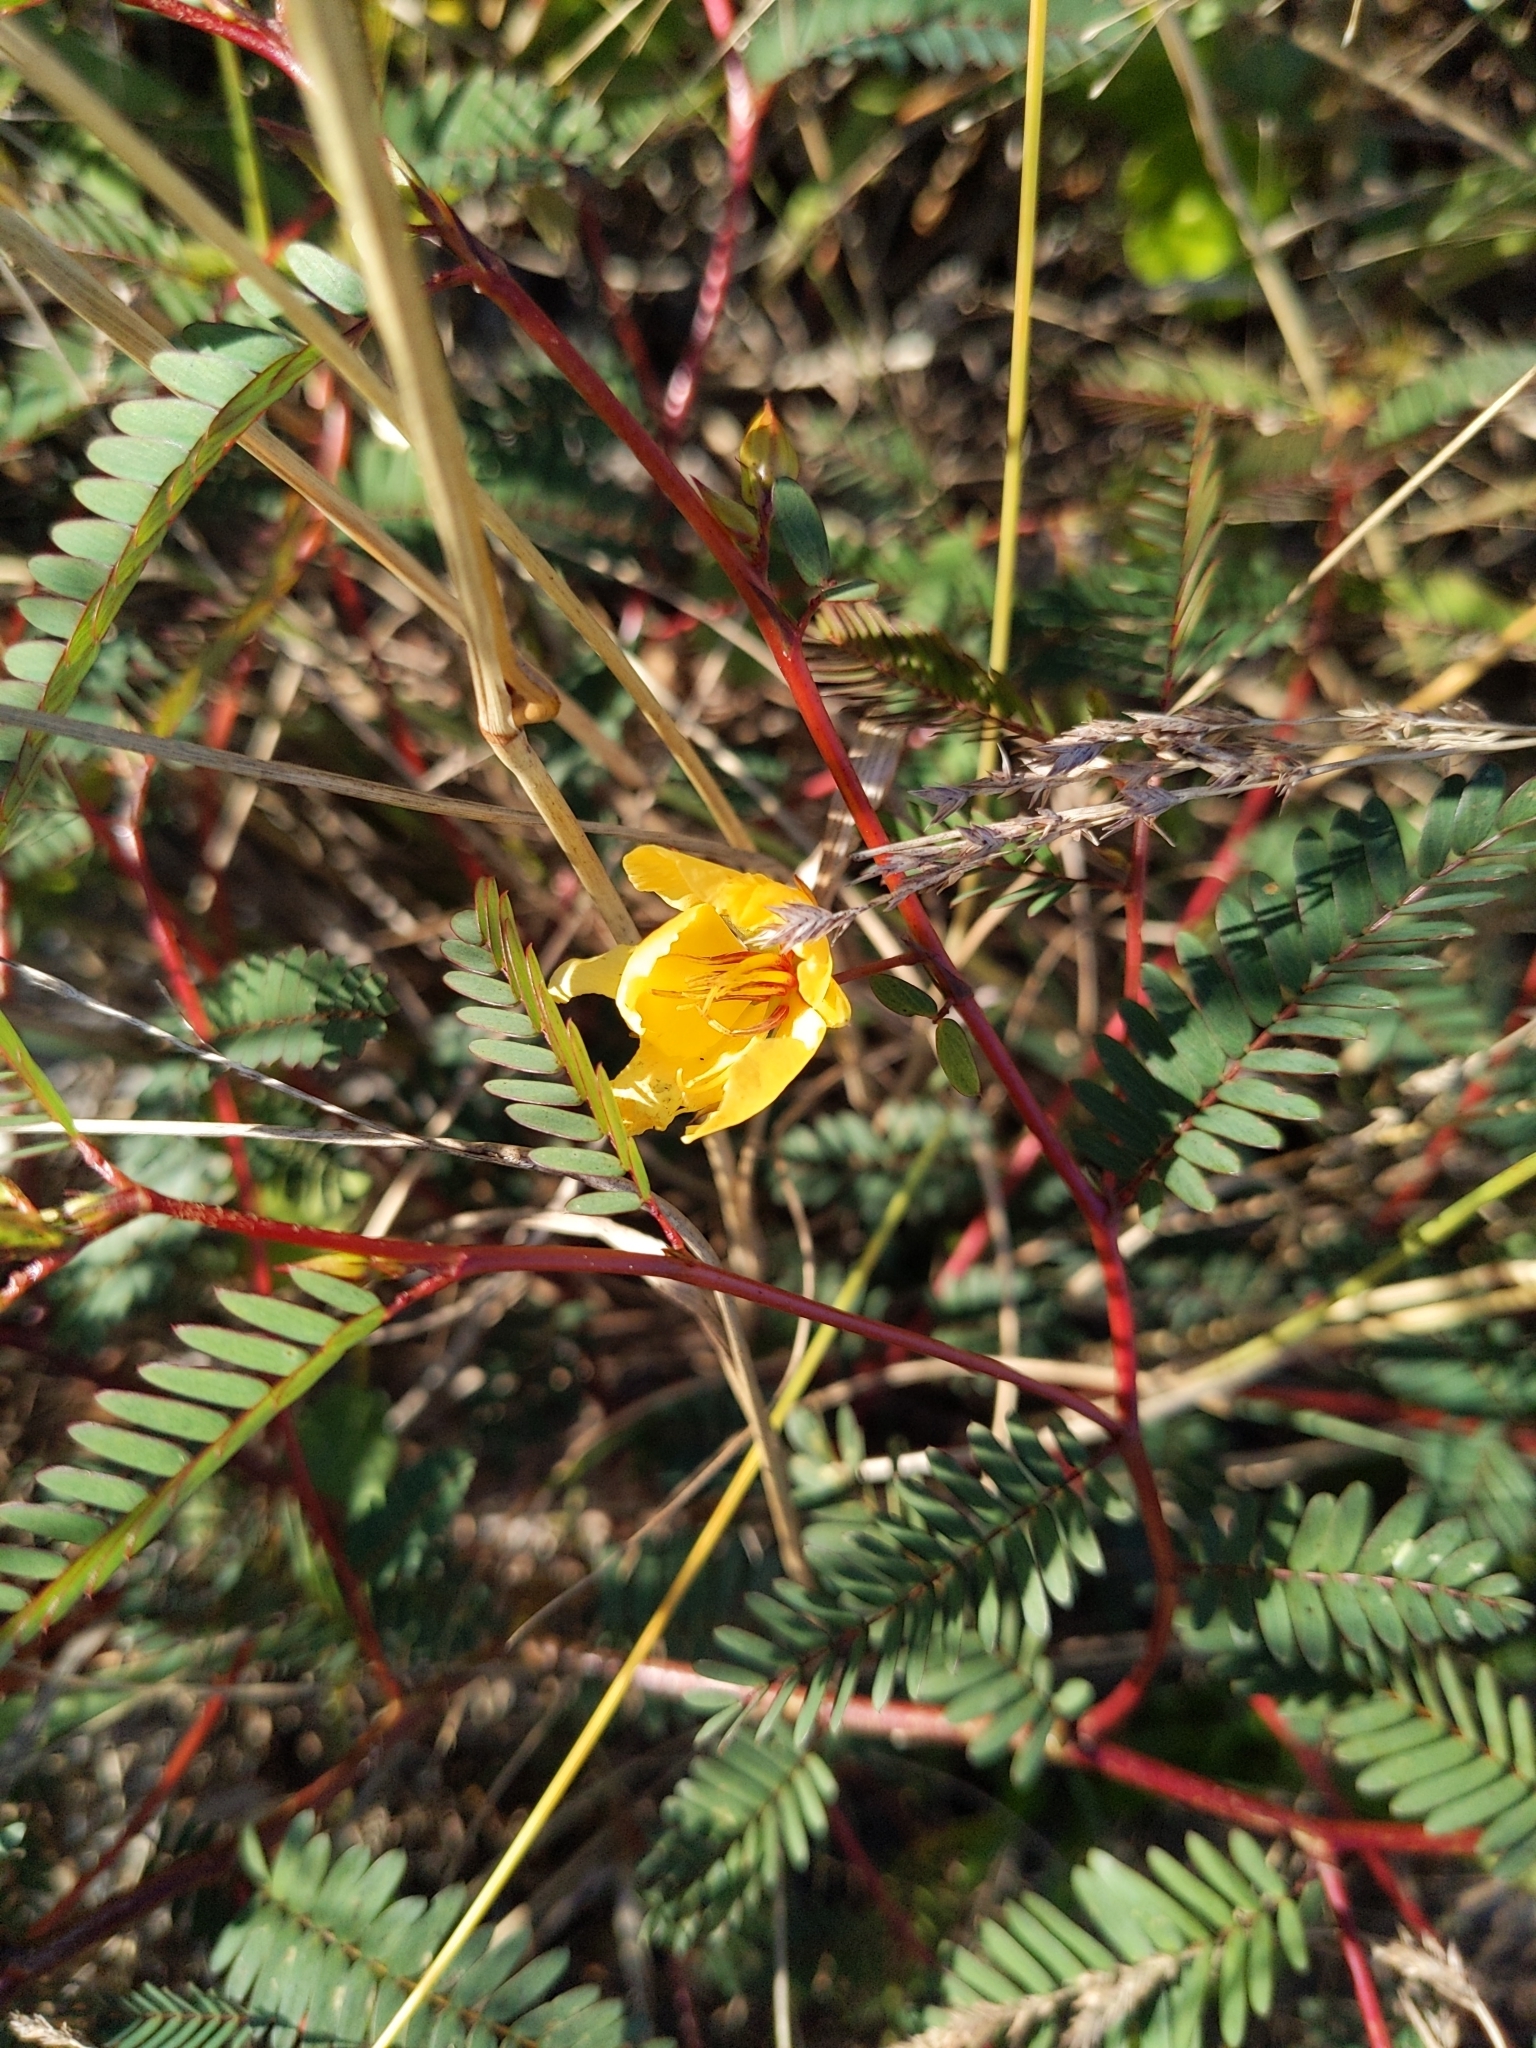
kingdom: Plantae
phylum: Tracheophyta
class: Magnoliopsida
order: Fabales
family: Fabaceae
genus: Chamaecrista
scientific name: Chamaecrista nictitans
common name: Sensitive cassia
